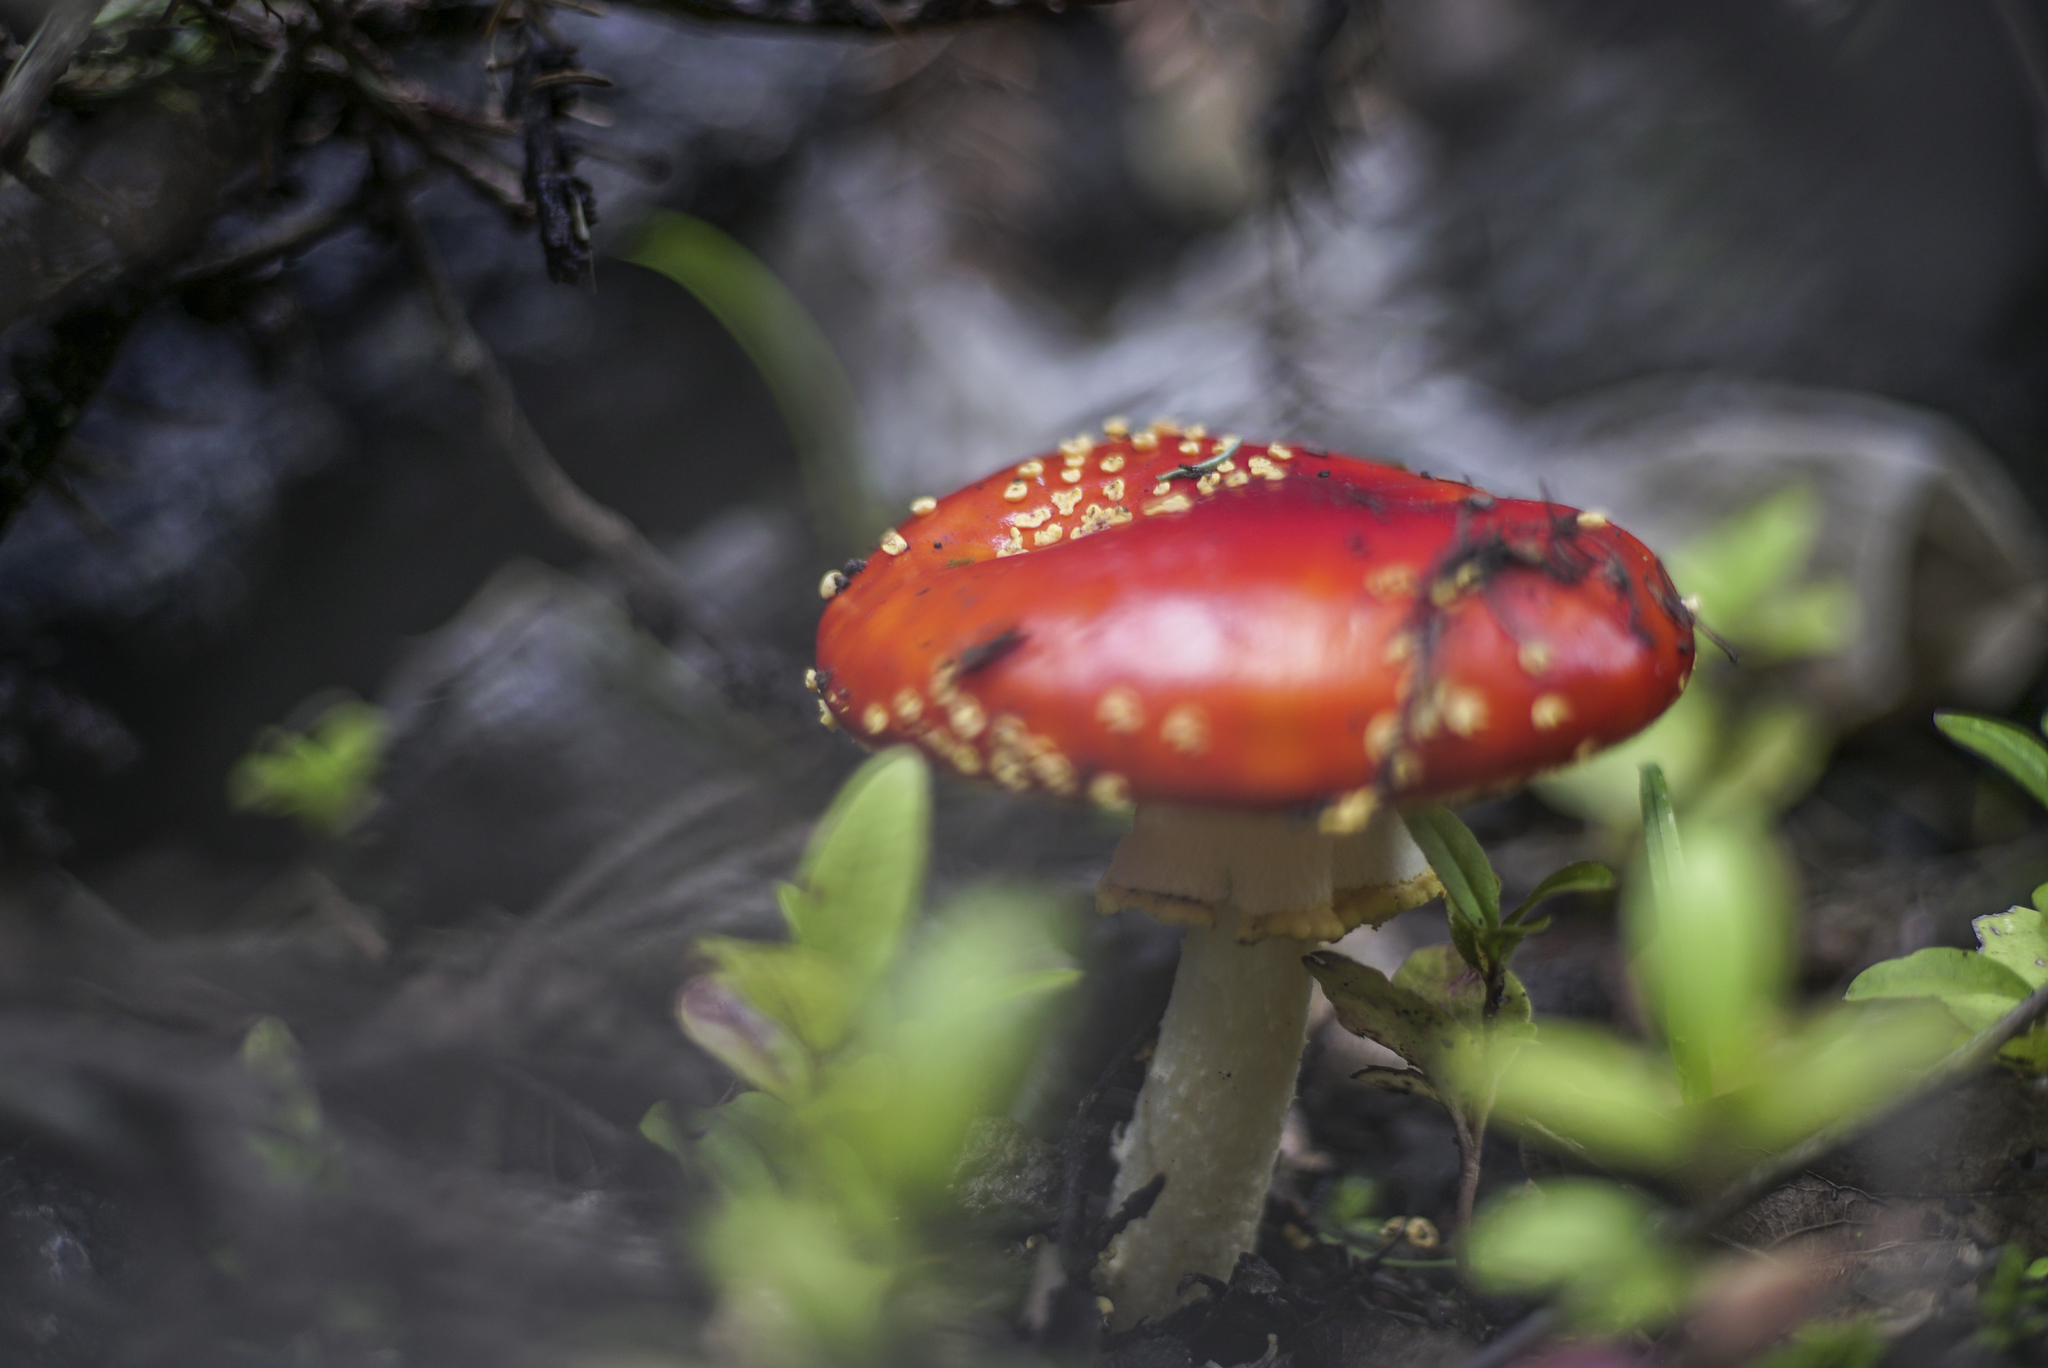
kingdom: Fungi
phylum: Basidiomycota
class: Agaricomycetes
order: Agaricales
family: Amanitaceae
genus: Amanita
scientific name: Amanita muscaria
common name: Fly agaric
